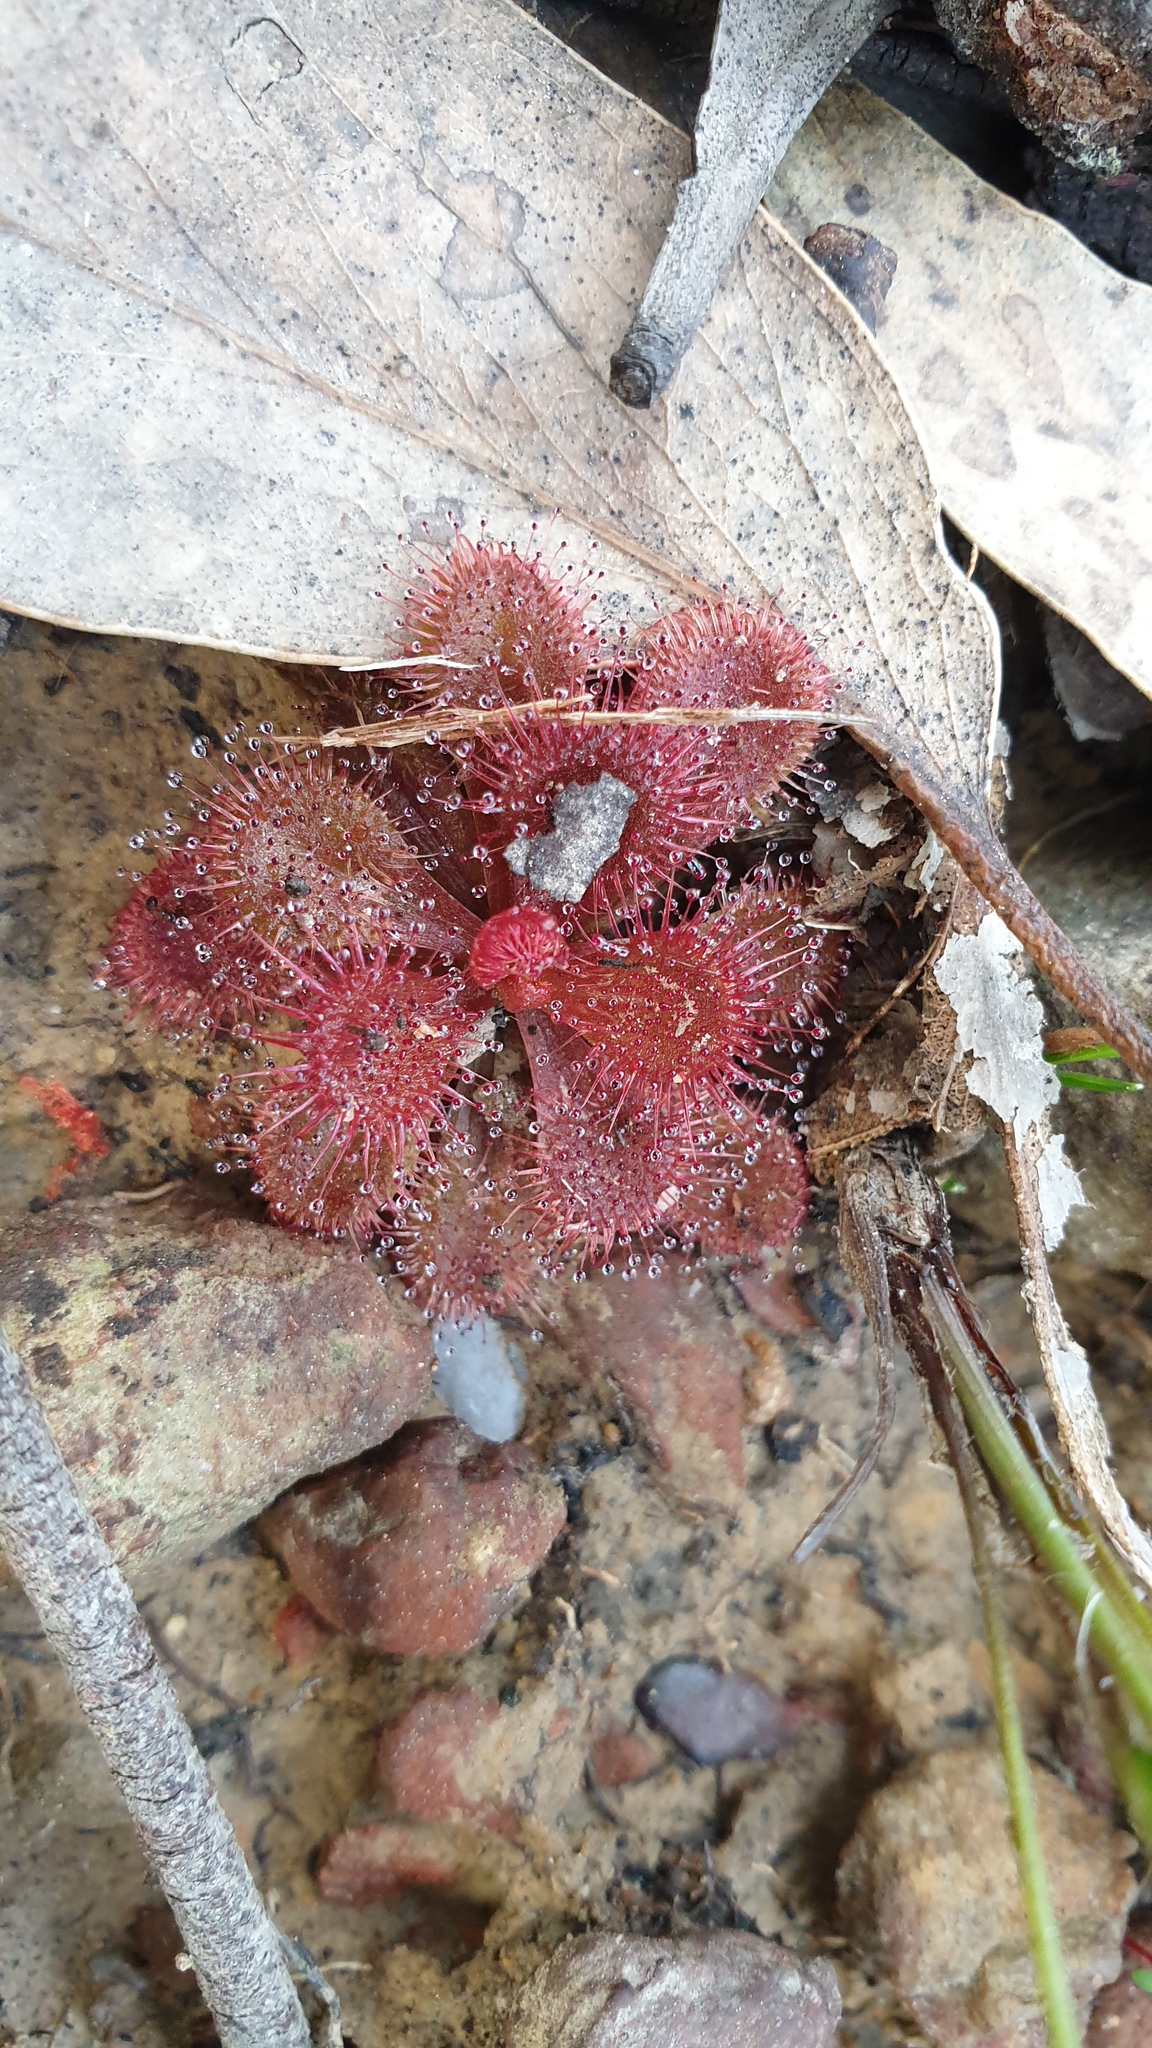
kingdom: Plantae
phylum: Tracheophyta
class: Magnoliopsida
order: Caryophyllales
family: Droseraceae
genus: Drosera
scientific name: Drosera whittakeri
